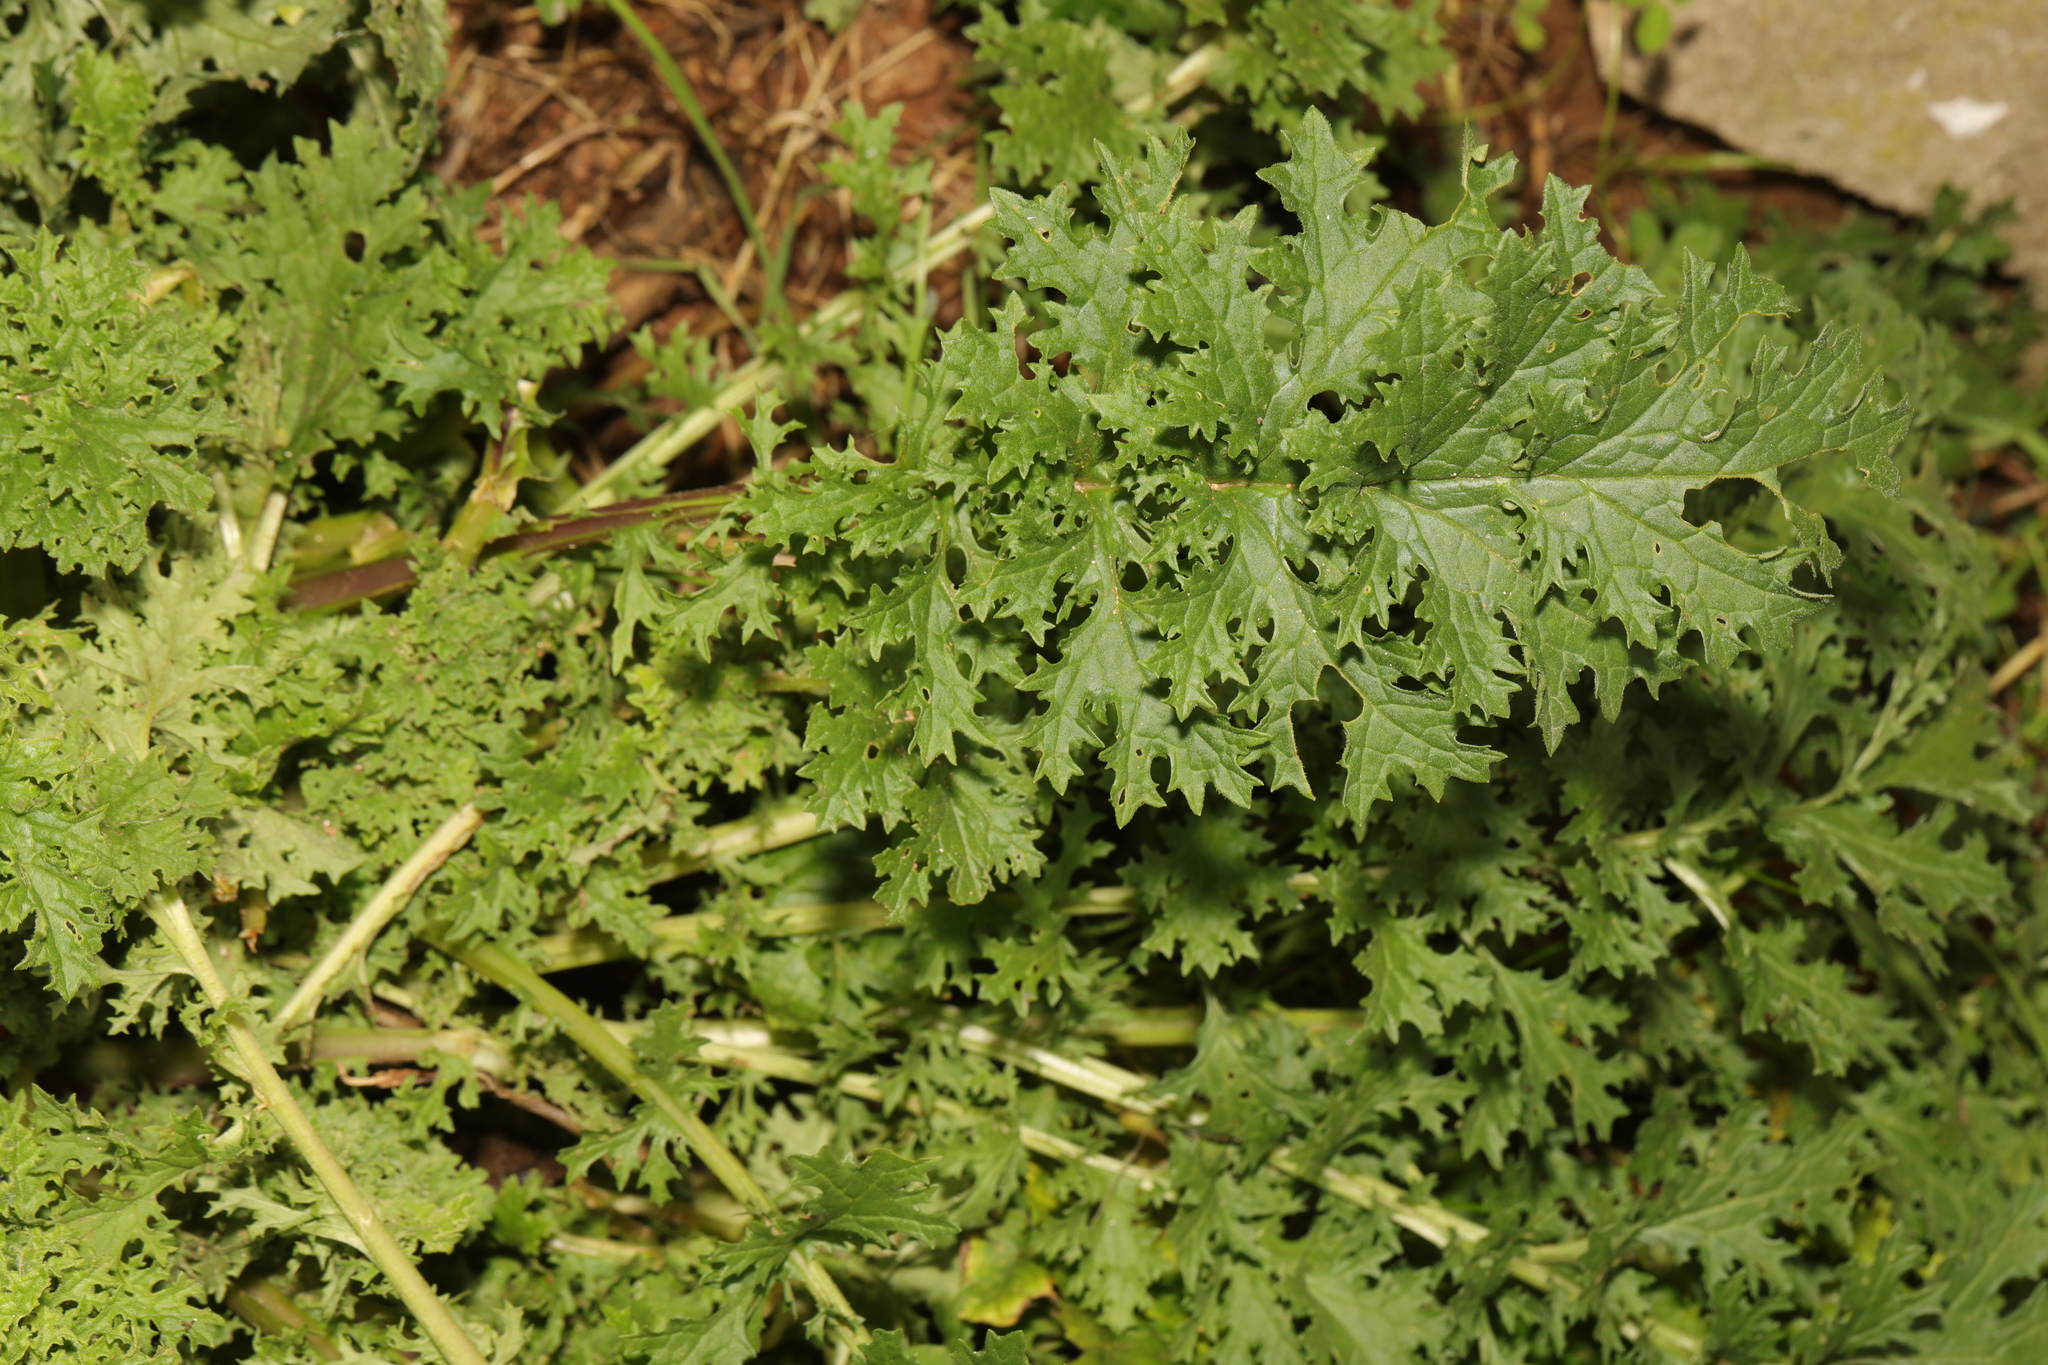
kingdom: Plantae
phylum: Tracheophyta
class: Magnoliopsida
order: Asterales
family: Asteraceae
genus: Jacobaea
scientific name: Jacobaea vulgaris
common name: Stinking willie
